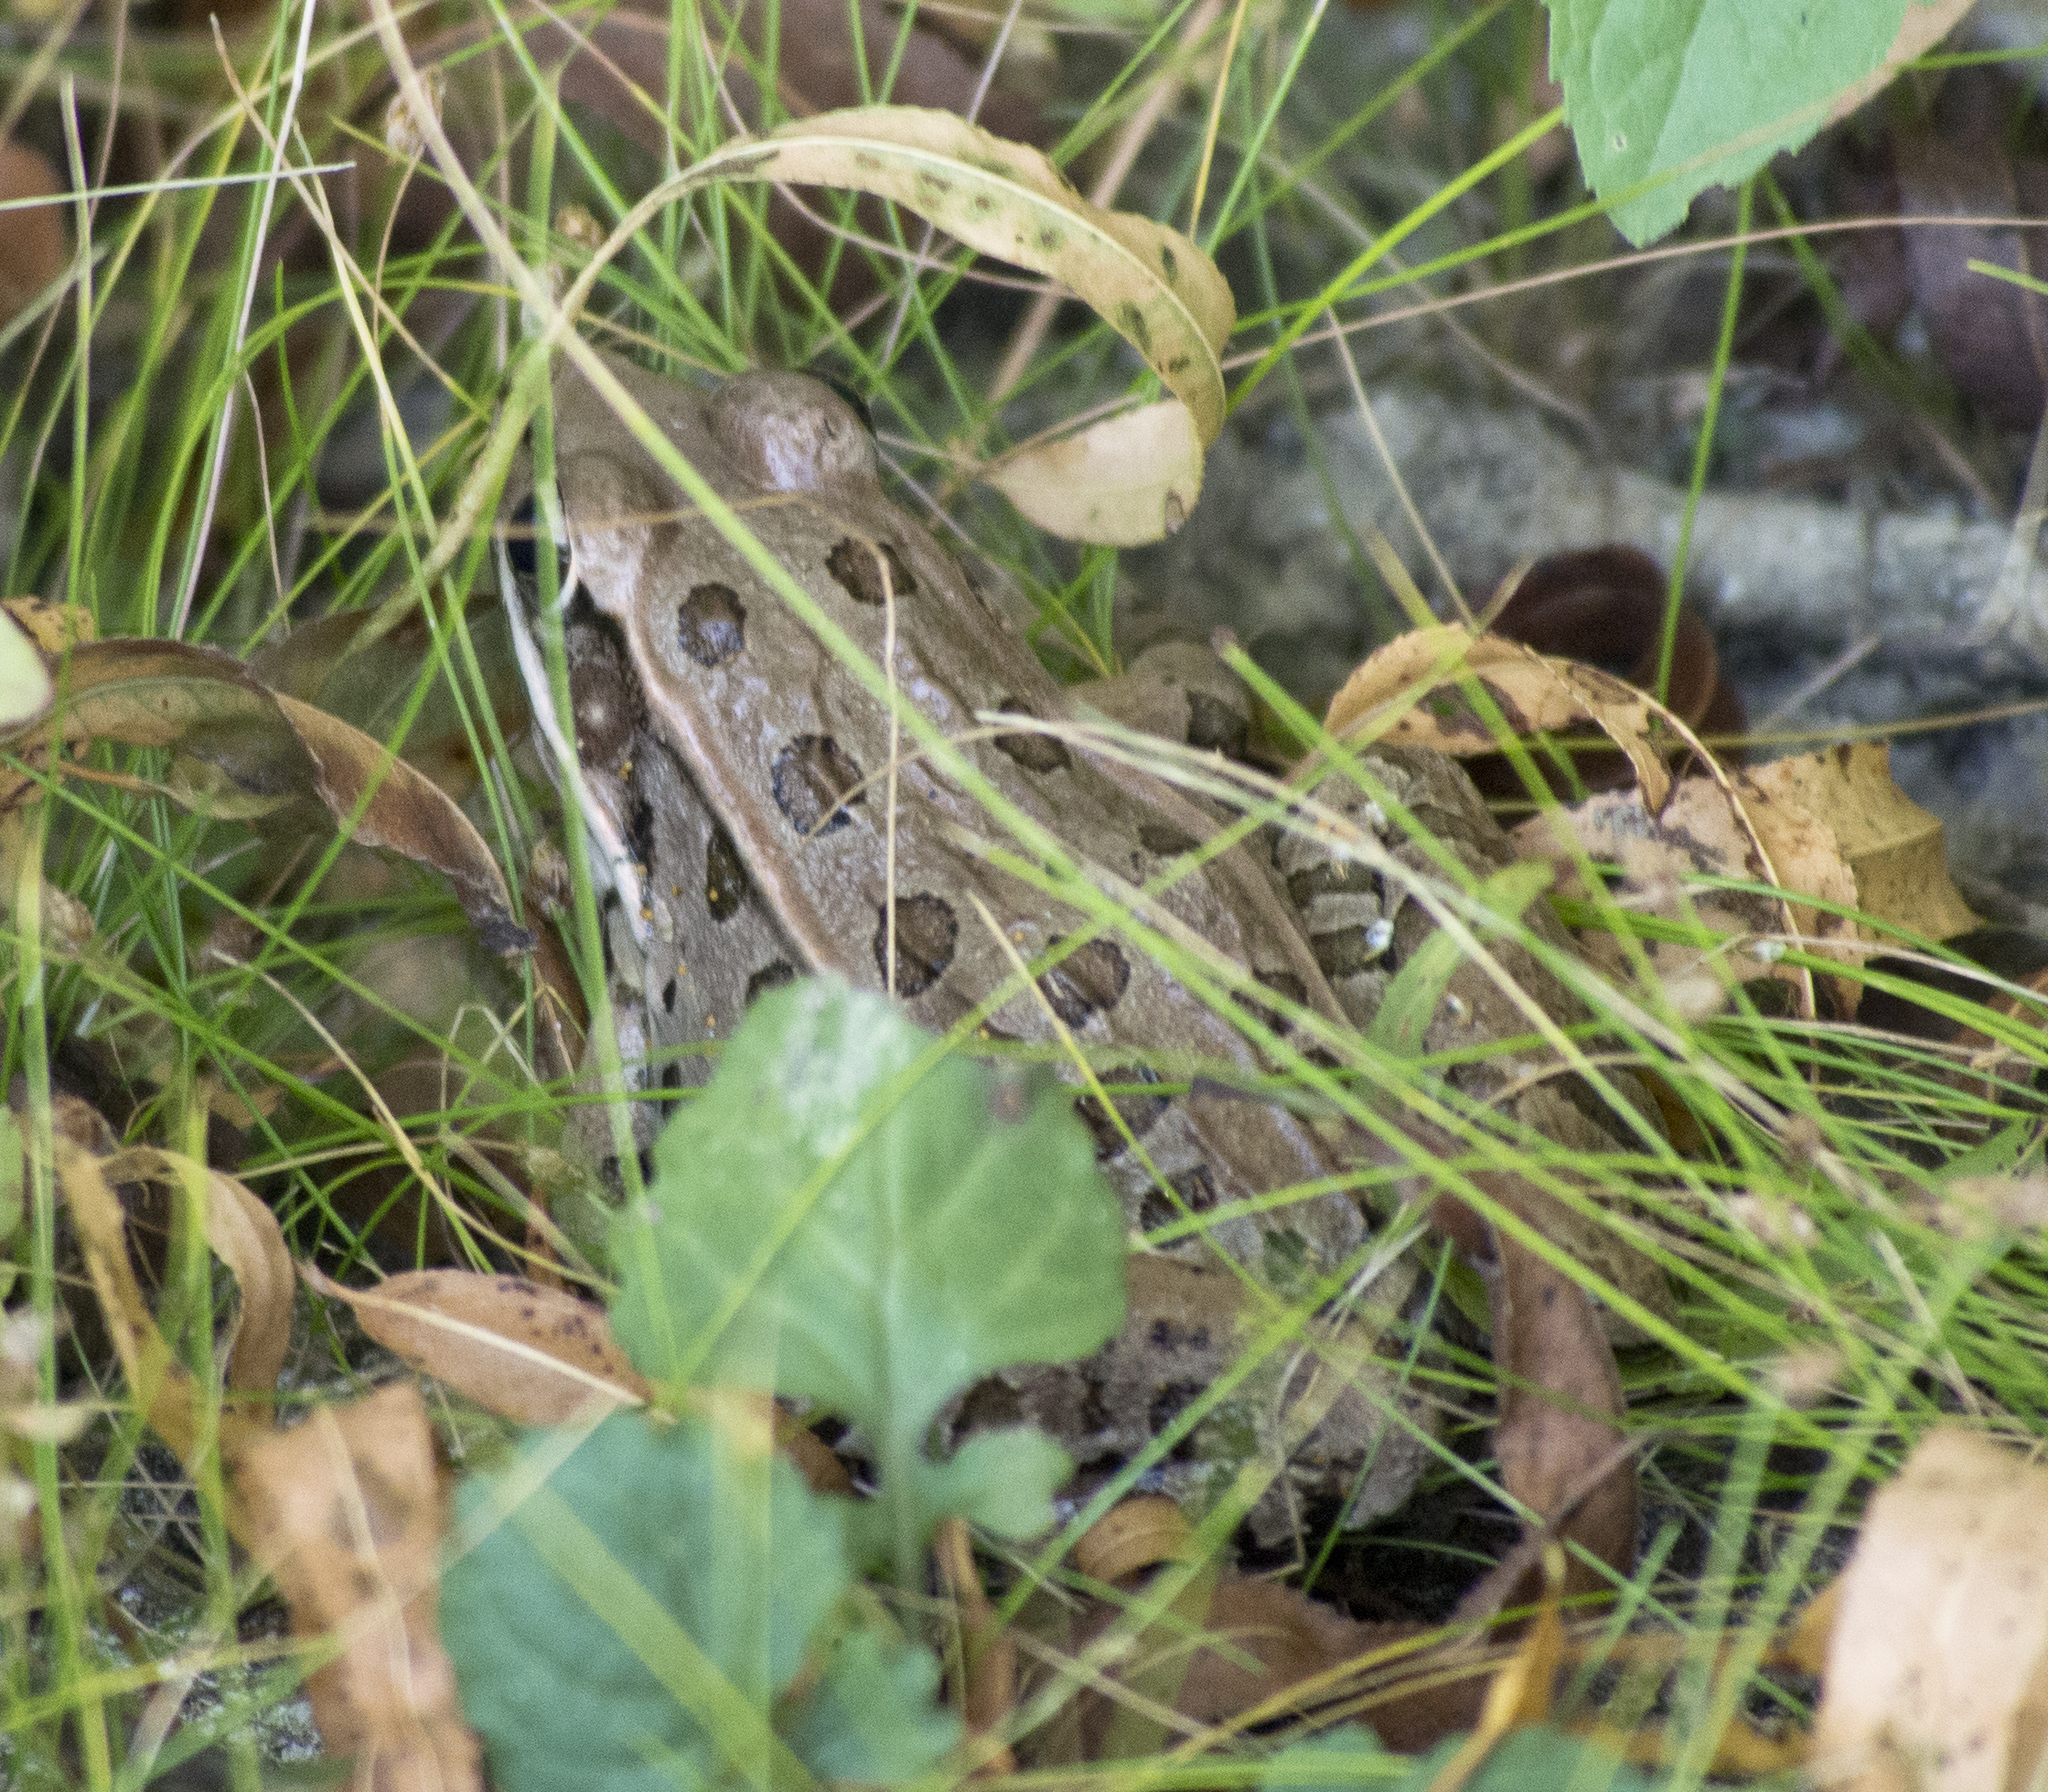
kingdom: Animalia
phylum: Chordata
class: Amphibia
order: Anura
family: Ranidae
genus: Lithobates
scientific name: Lithobates sphenocephalus
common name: Southern leopard frog
